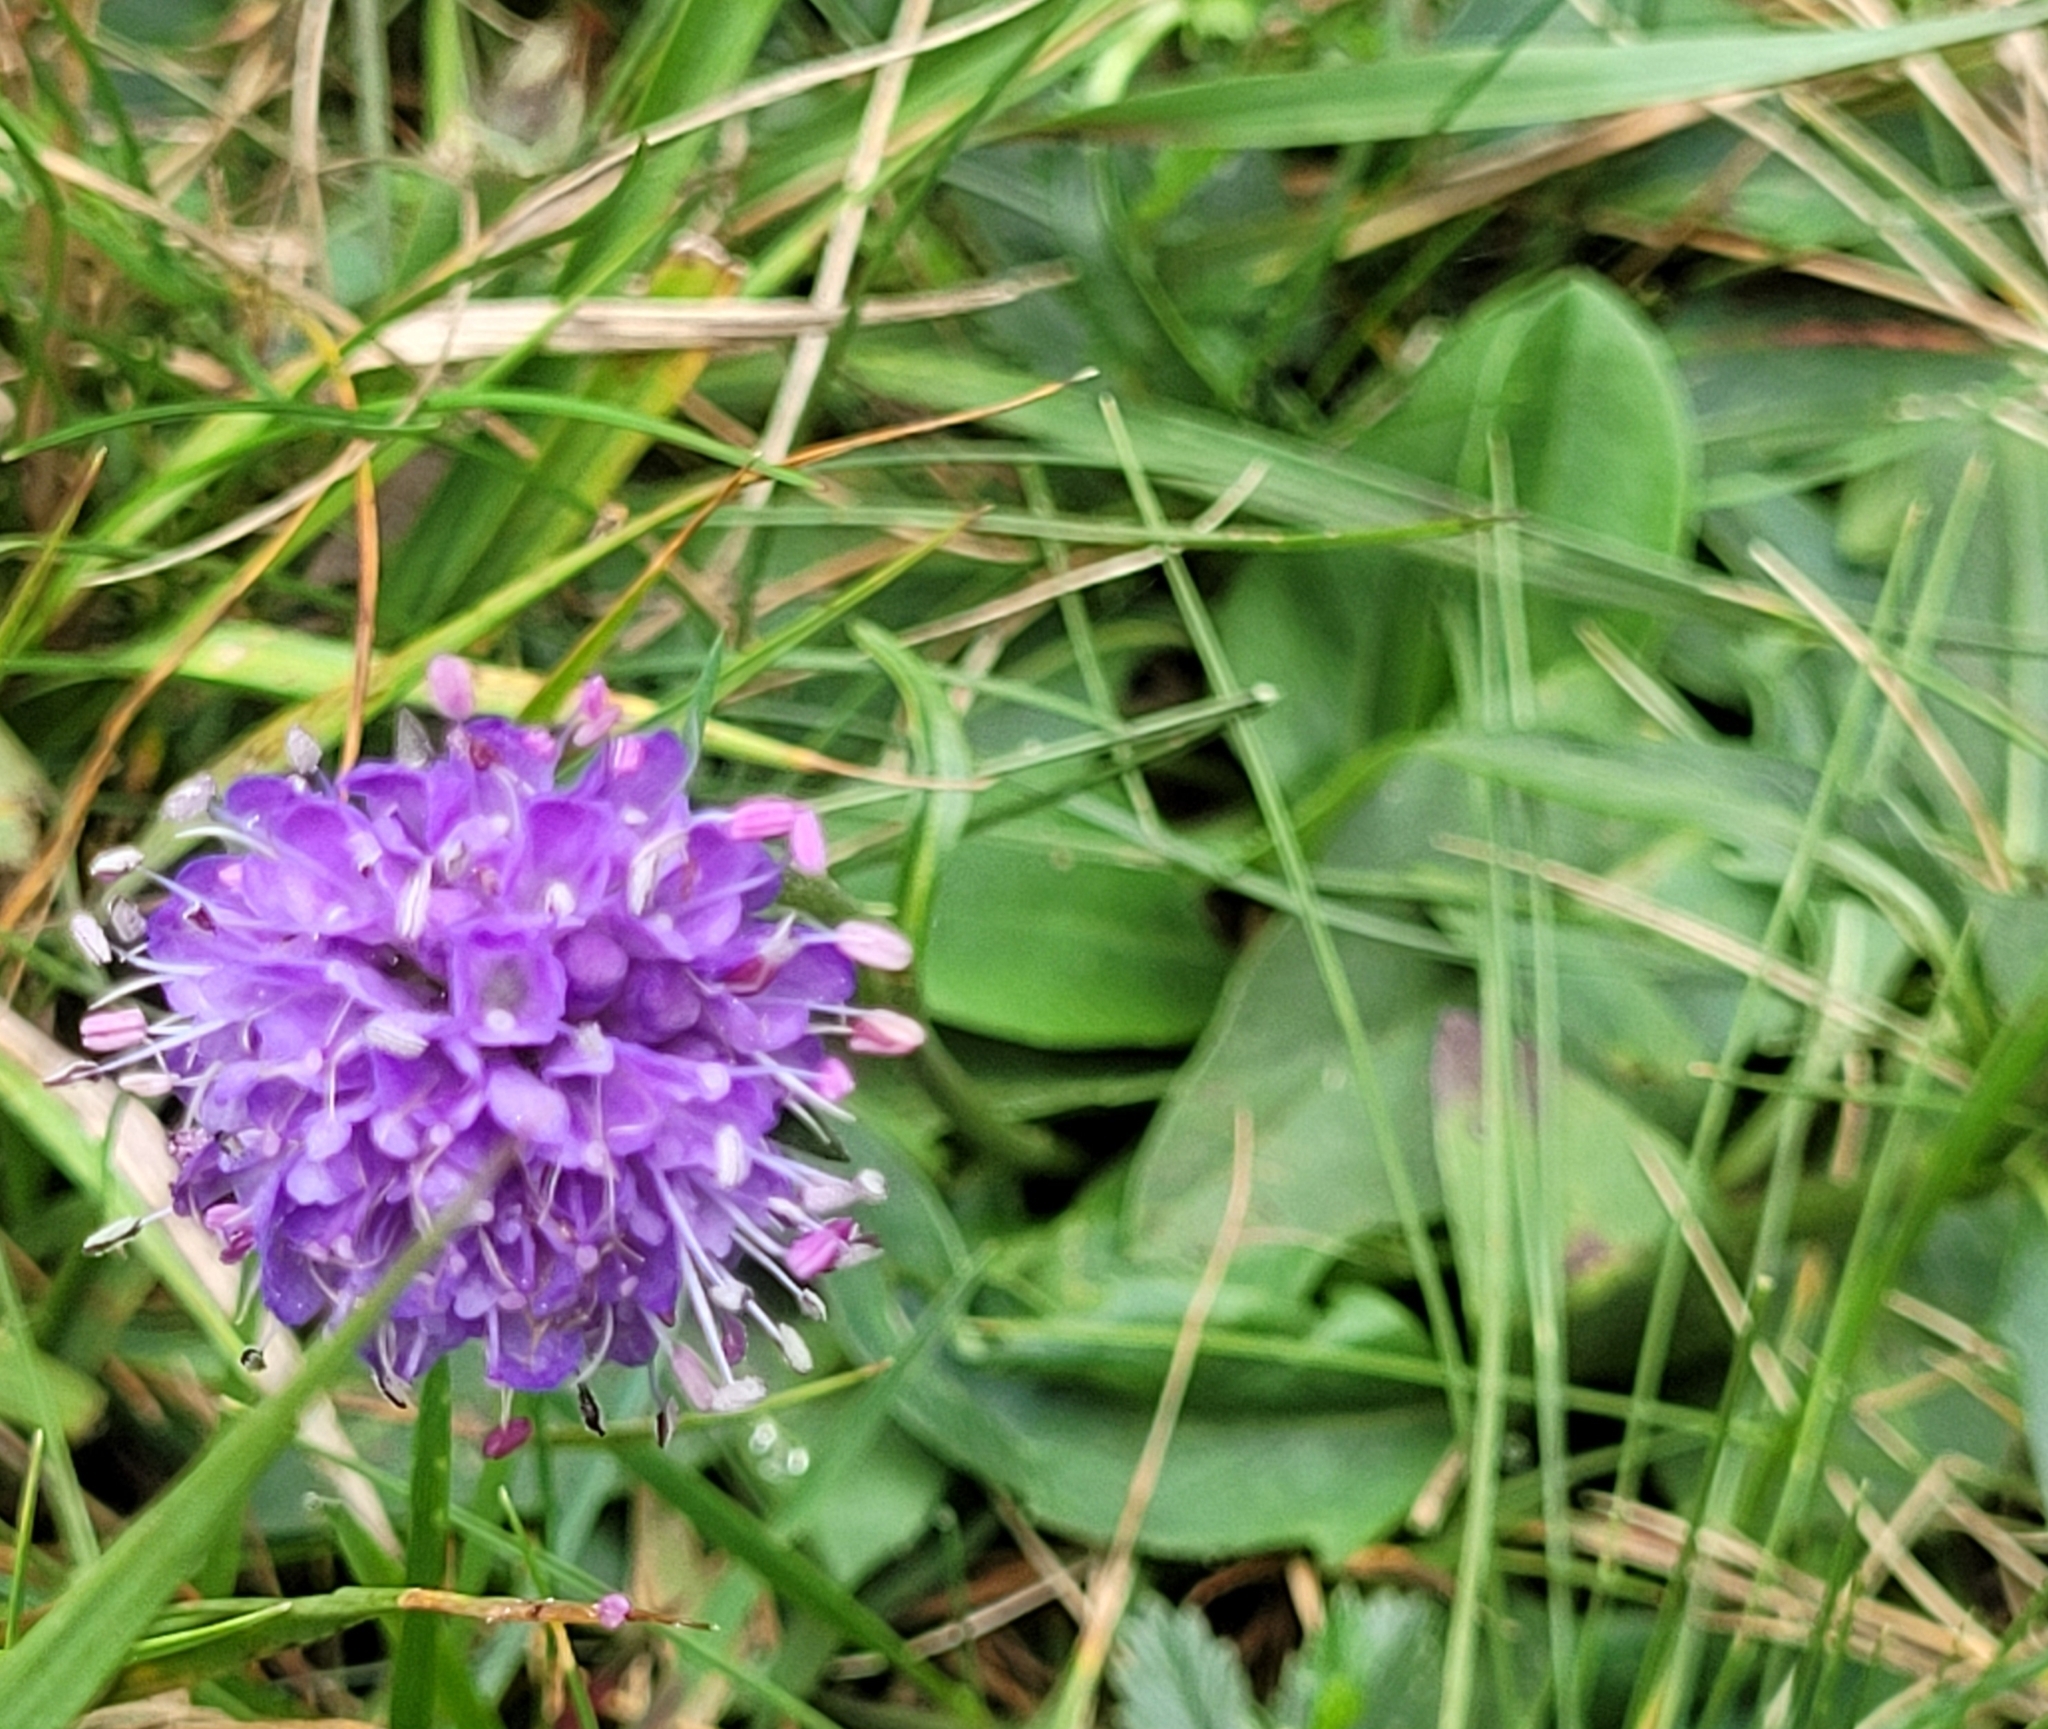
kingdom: Plantae
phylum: Tracheophyta
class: Magnoliopsida
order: Dipsacales
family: Caprifoliaceae
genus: Succisa
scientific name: Succisa pratensis
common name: Devil's-bit
